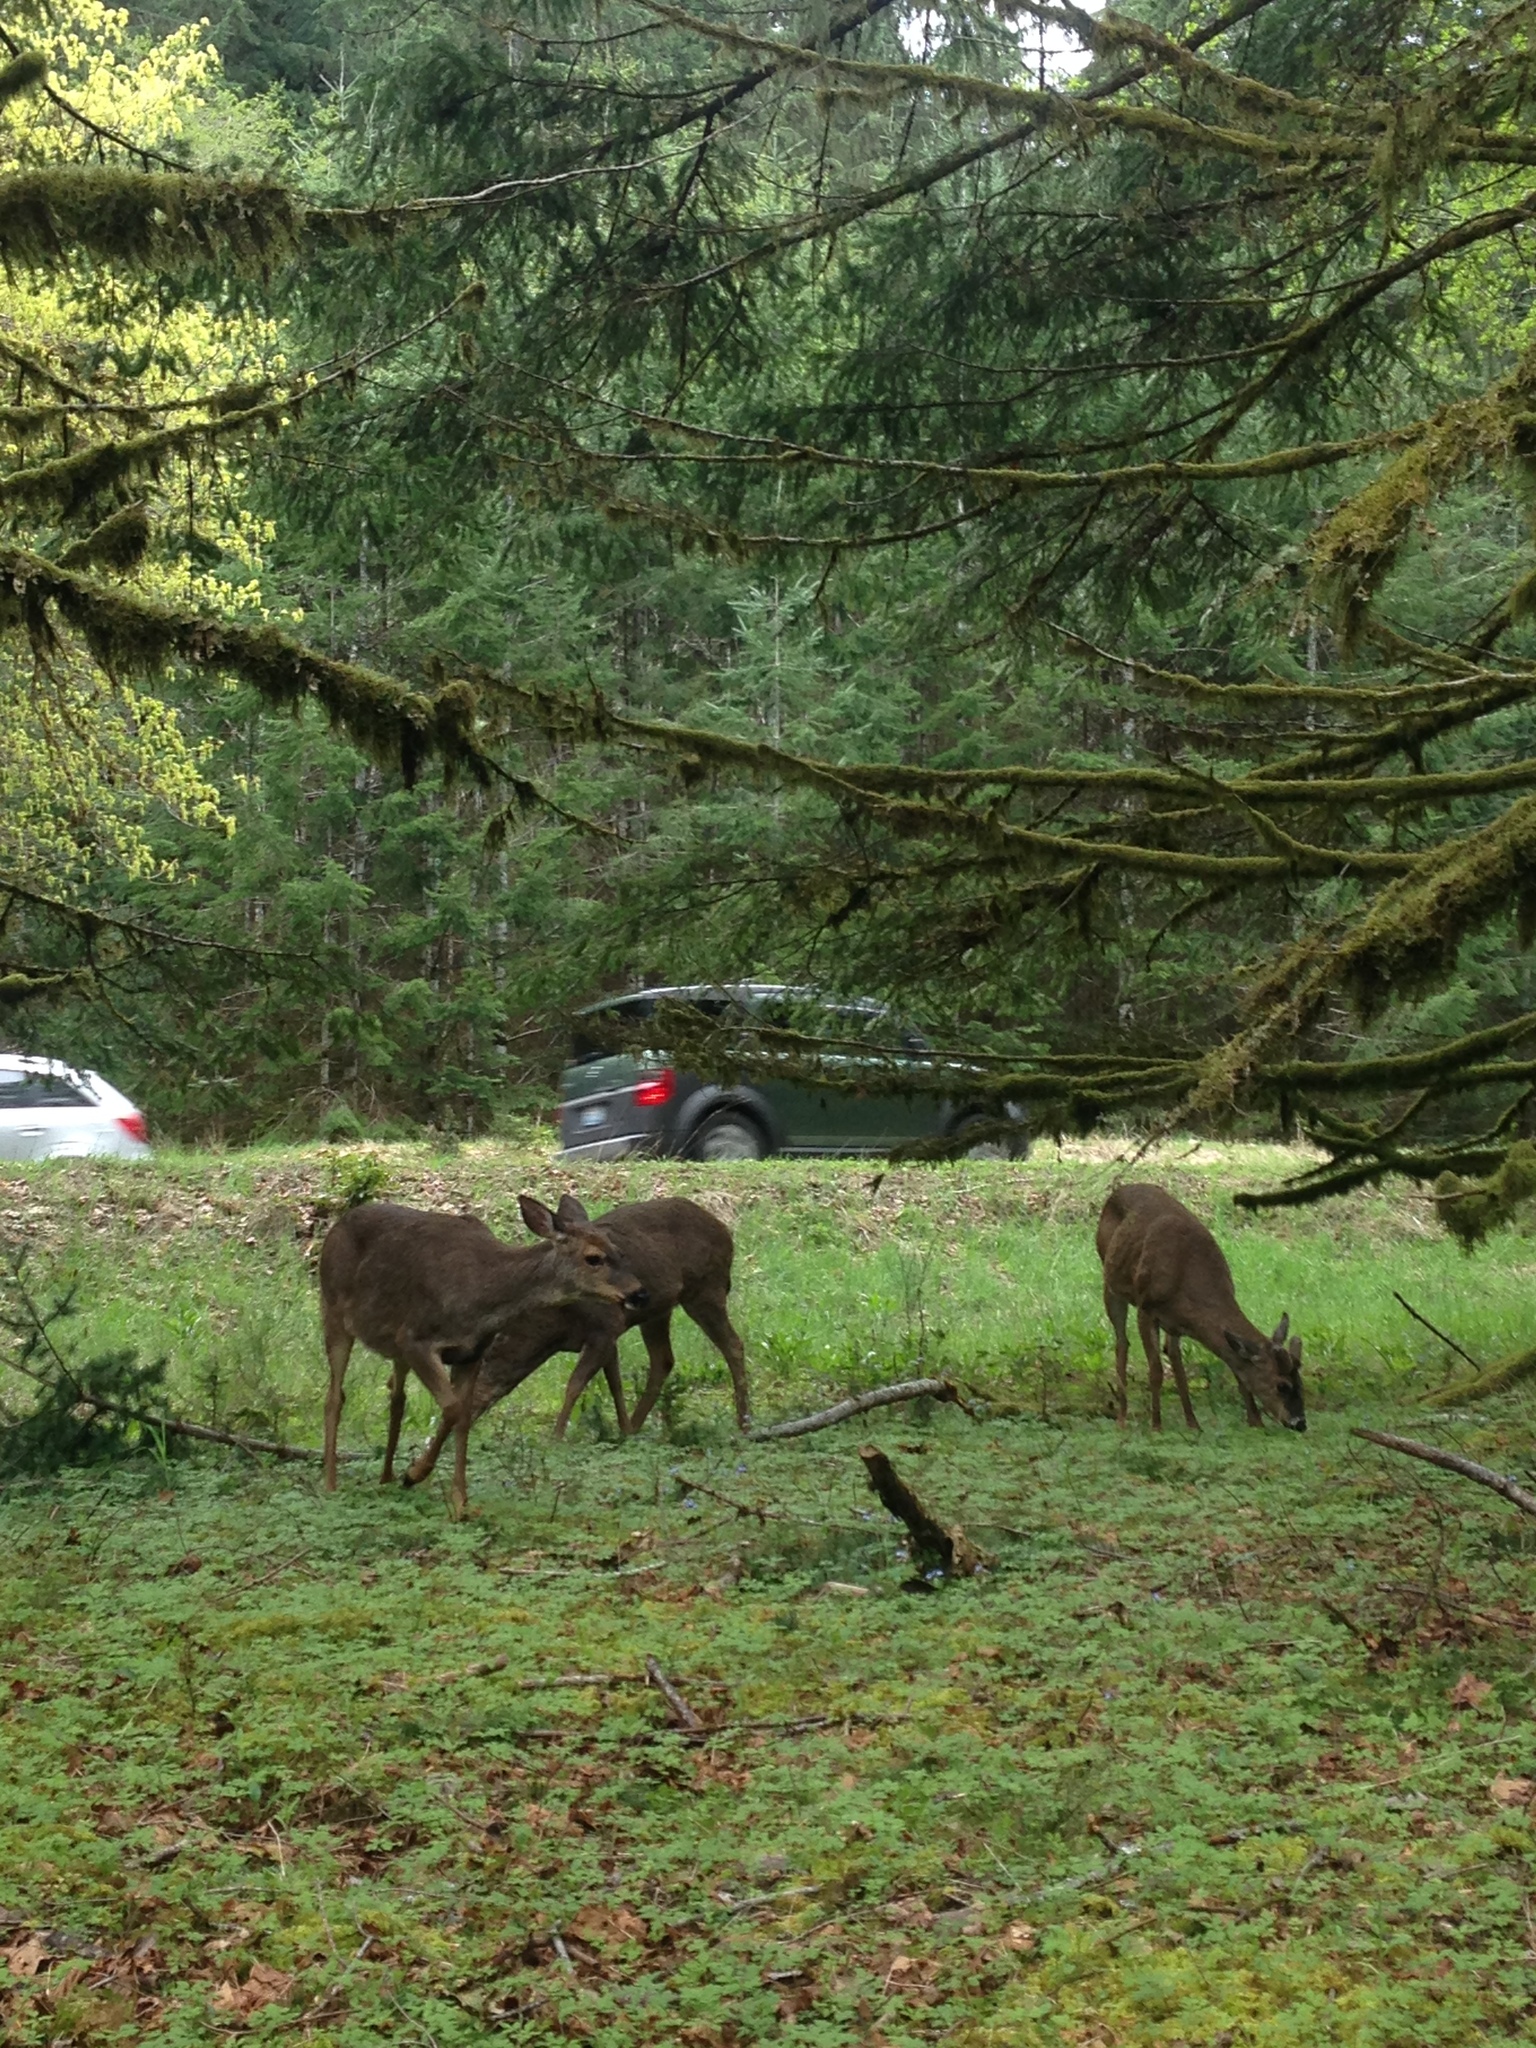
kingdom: Animalia
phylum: Chordata
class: Mammalia
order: Artiodactyla
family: Cervidae
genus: Odocoileus
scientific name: Odocoileus hemionus
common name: Mule deer
